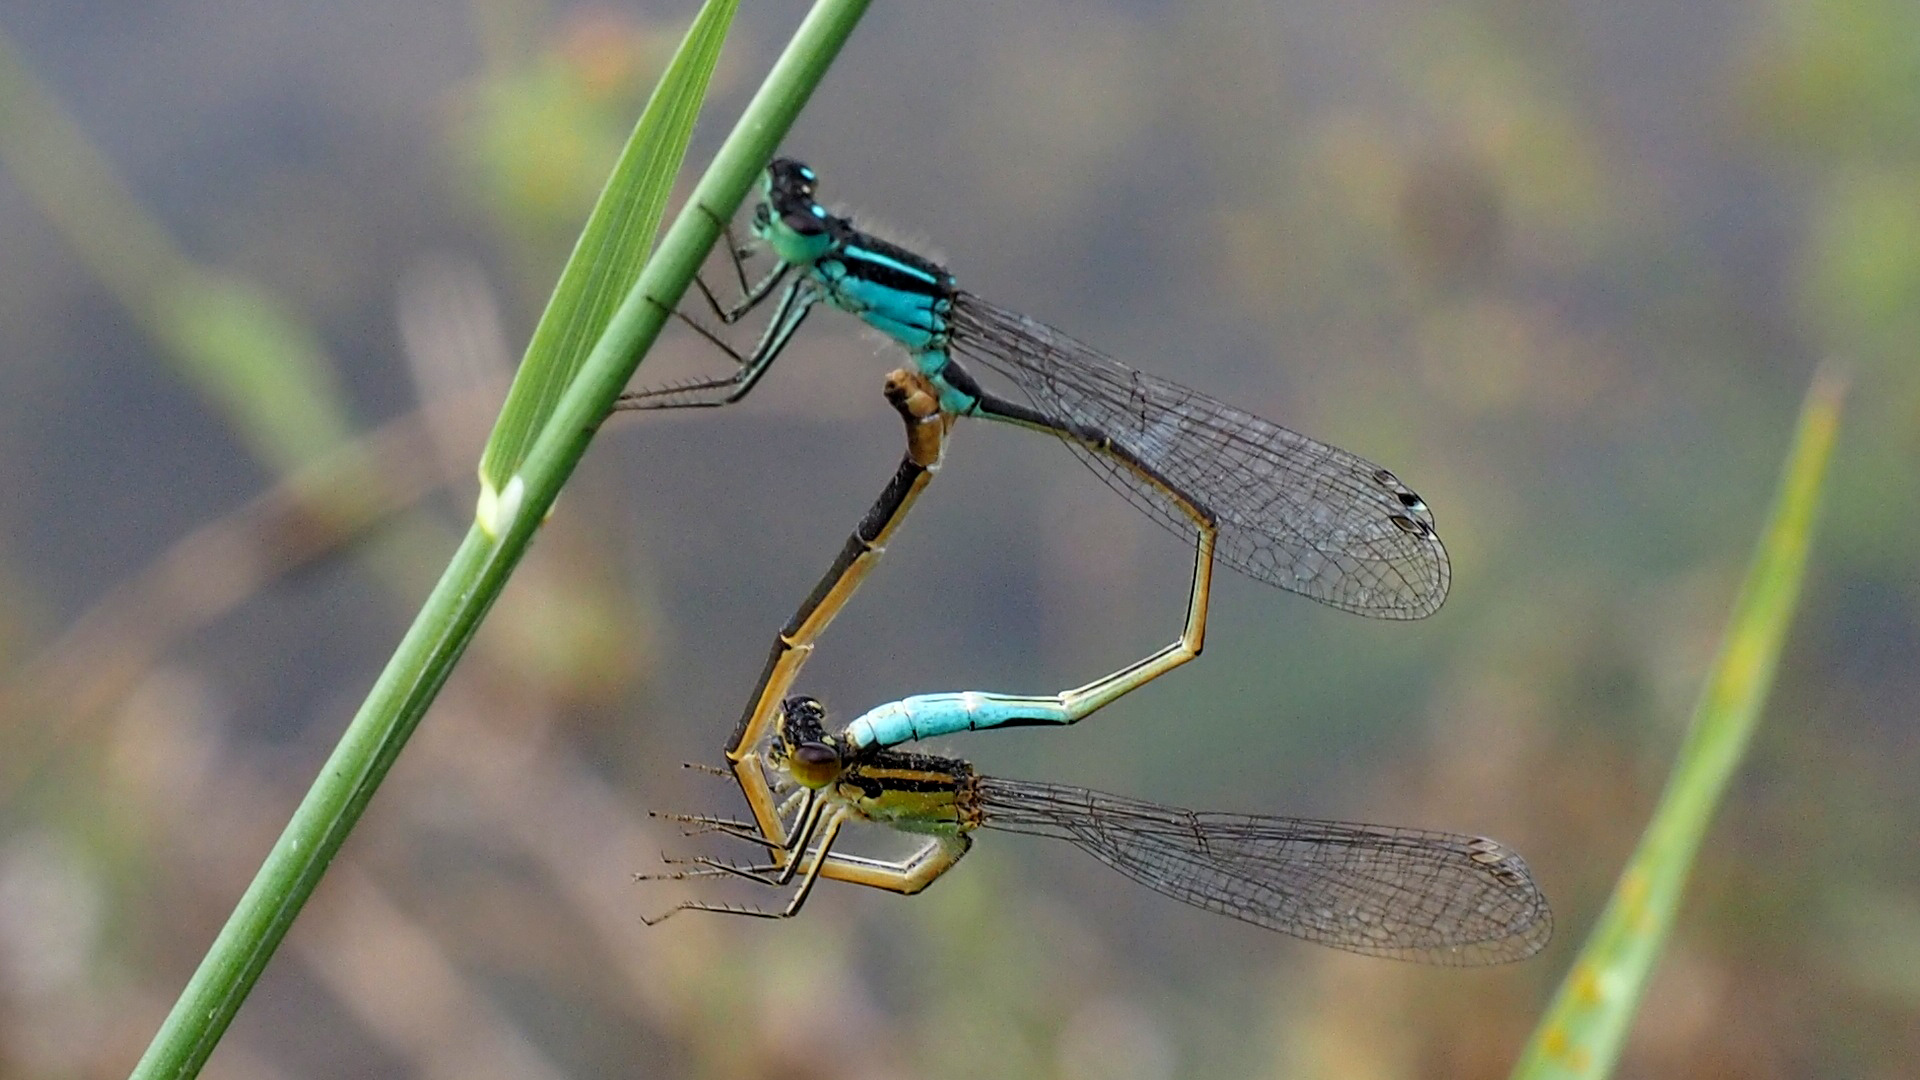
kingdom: Animalia
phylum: Arthropoda
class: Insecta
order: Odonata
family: Coenagrionidae
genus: Ischnura
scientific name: Ischnura elegans
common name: Blue-tailed damselfly
